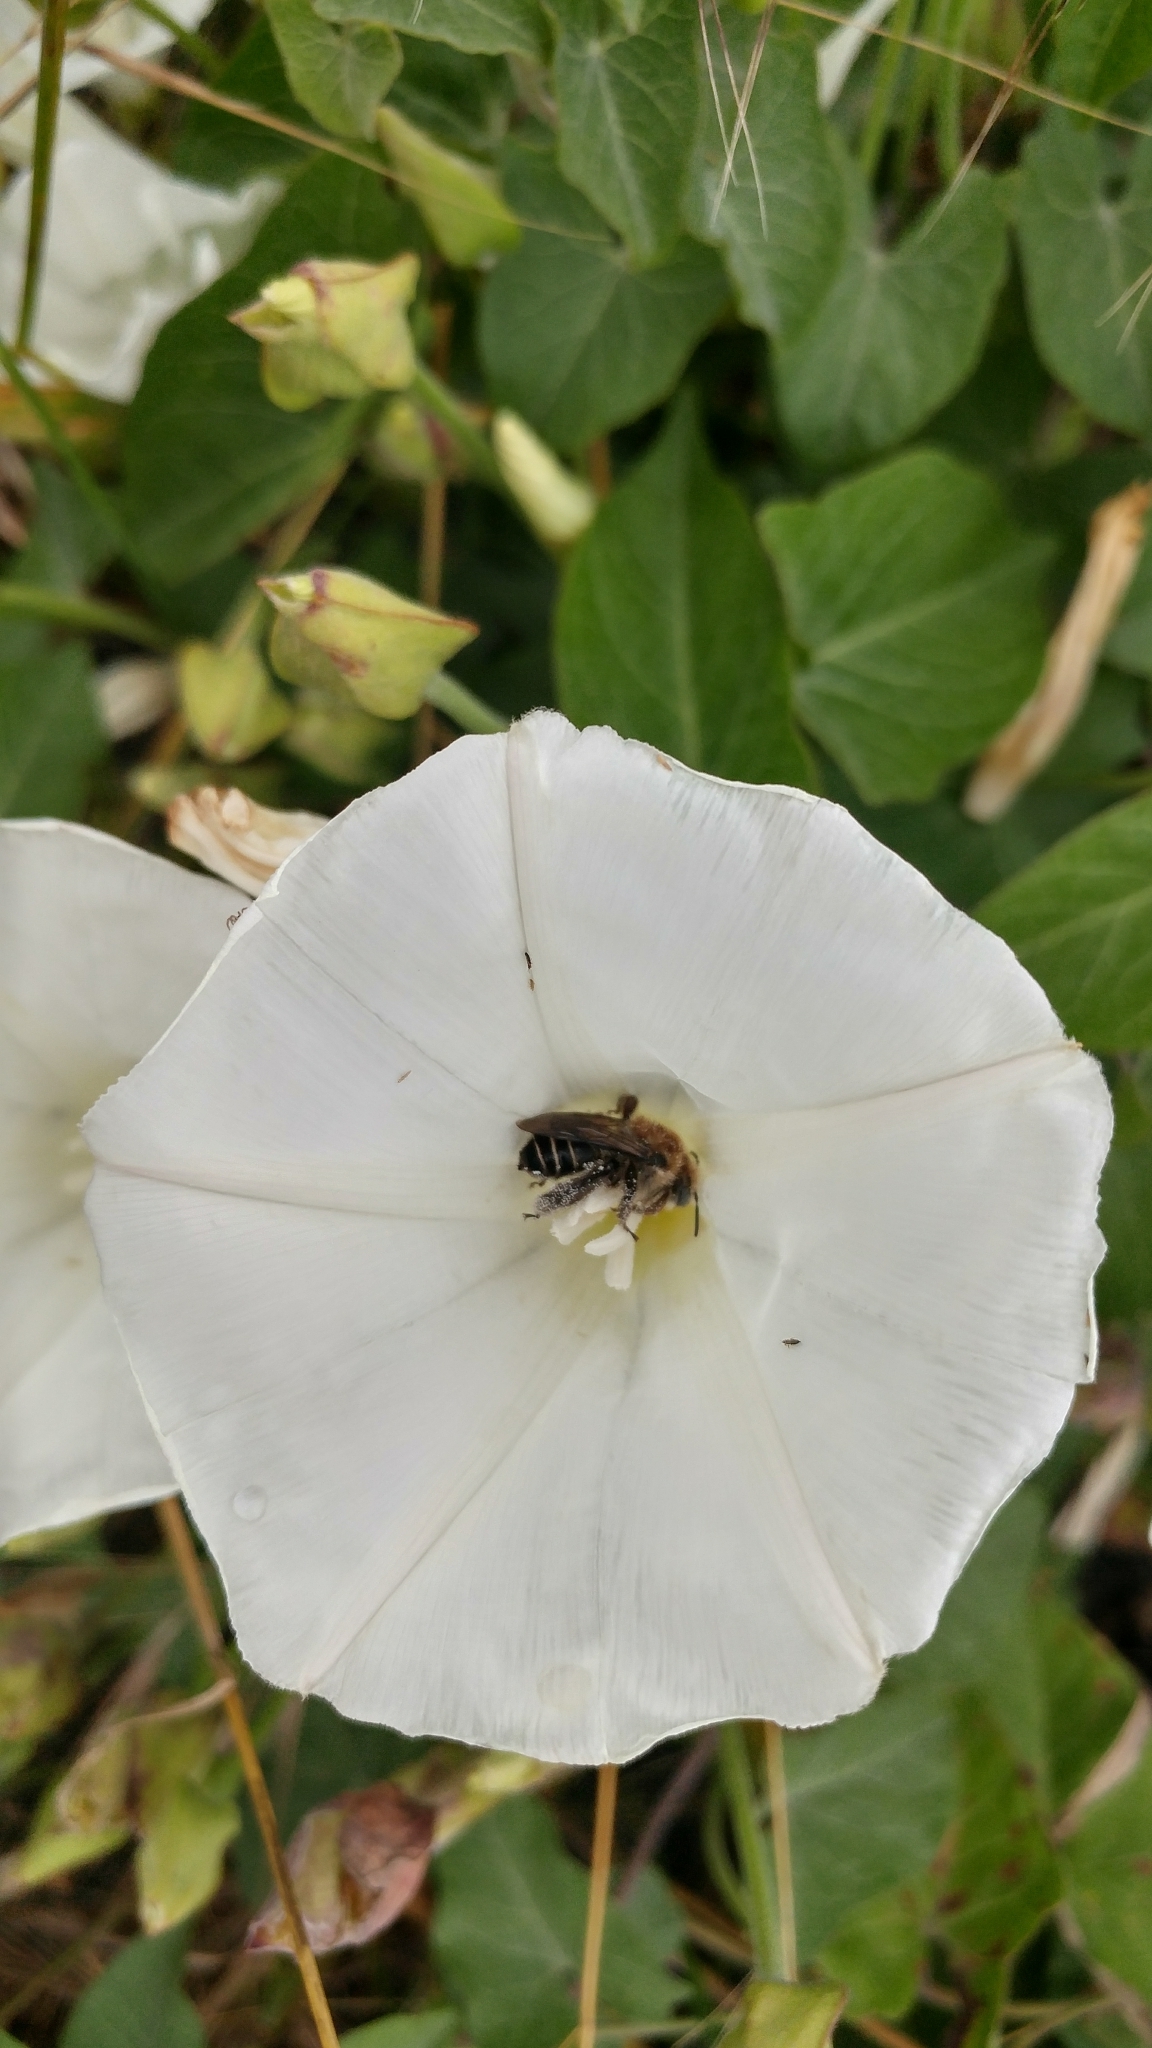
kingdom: Animalia
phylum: Arthropoda
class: Insecta
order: Hymenoptera
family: Apidae
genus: Diadasia
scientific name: Diadasia bituberculata
